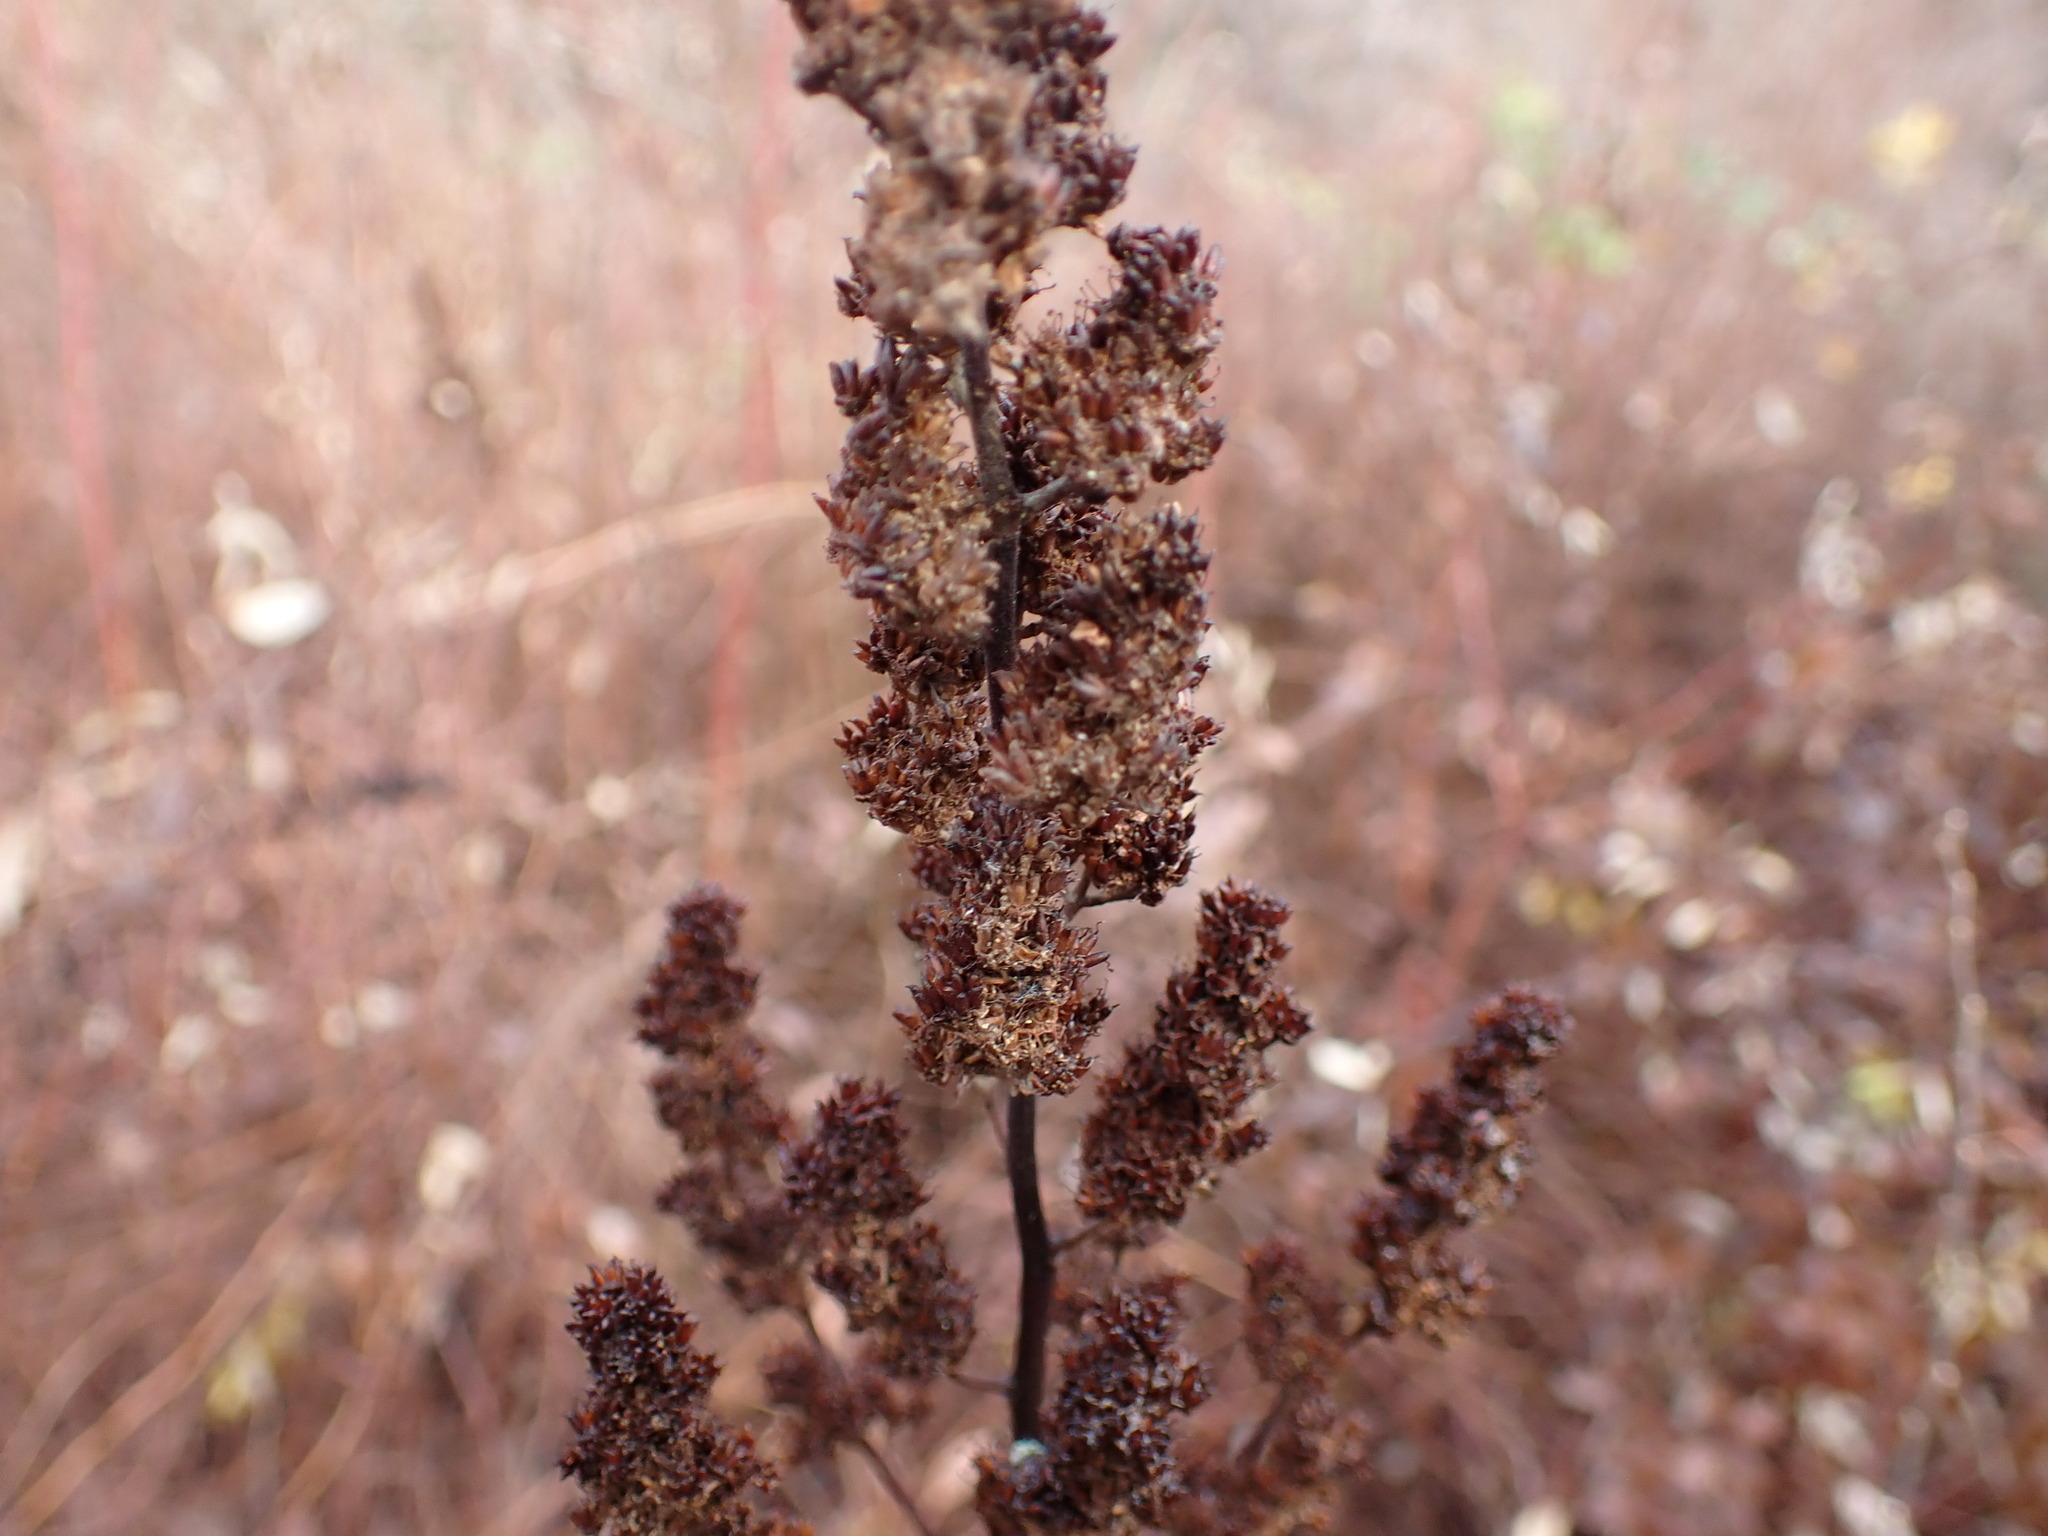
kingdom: Plantae
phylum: Tracheophyta
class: Magnoliopsida
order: Rosales
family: Rosaceae
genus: Spiraea
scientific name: Spiraea douglasii
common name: Steeplebush
